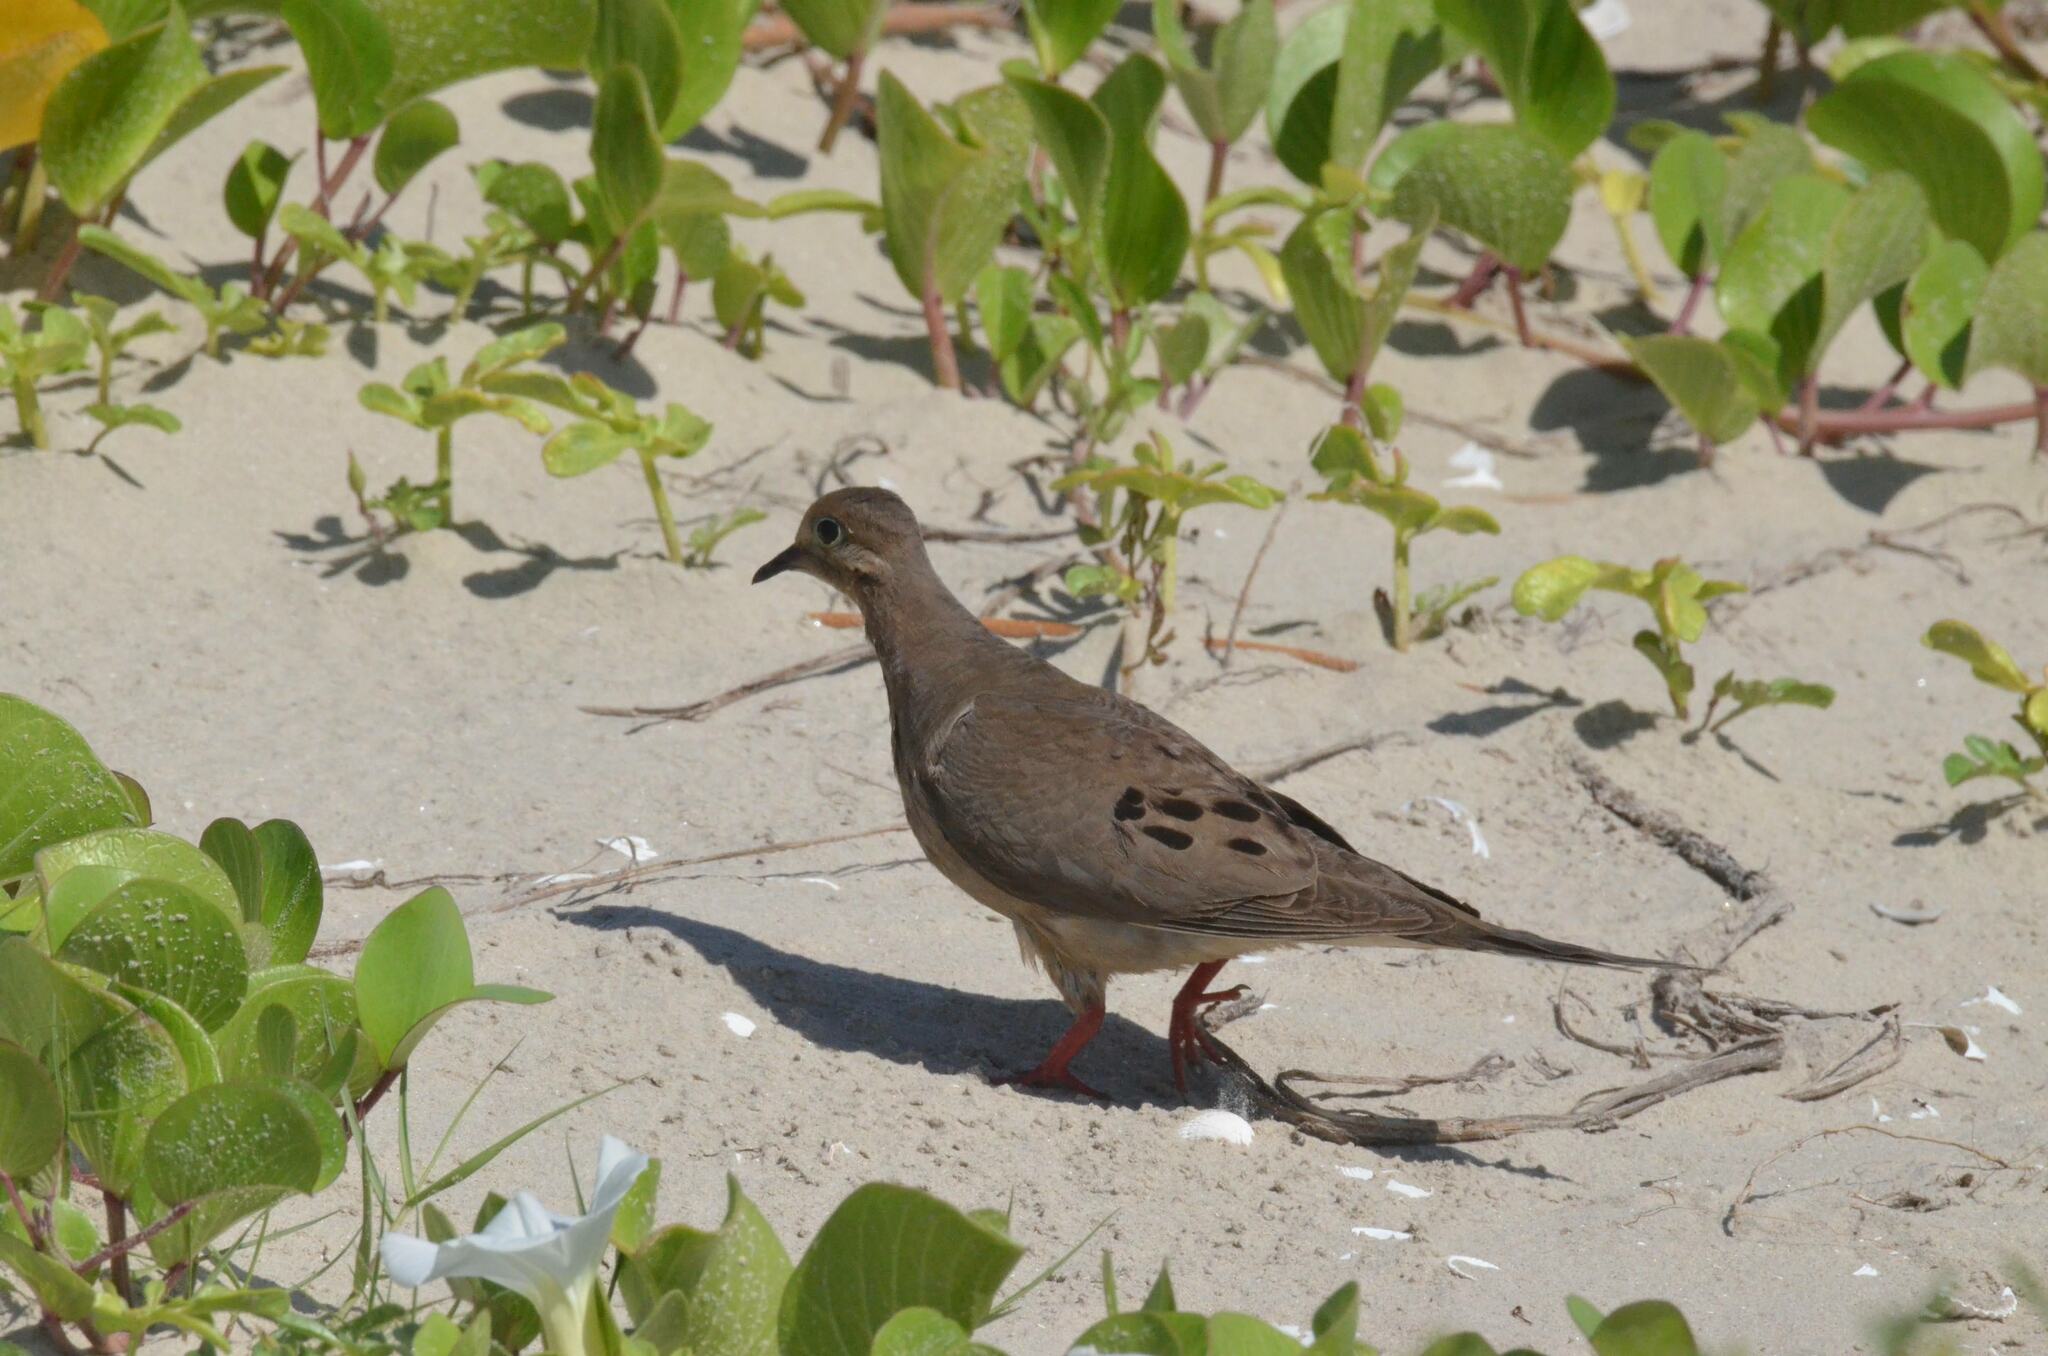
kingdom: Animalia
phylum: Chordata
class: Aves
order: Columbiformes
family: Columbidae
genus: Zenaida
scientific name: Zenaida macroura
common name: Mourning dove
